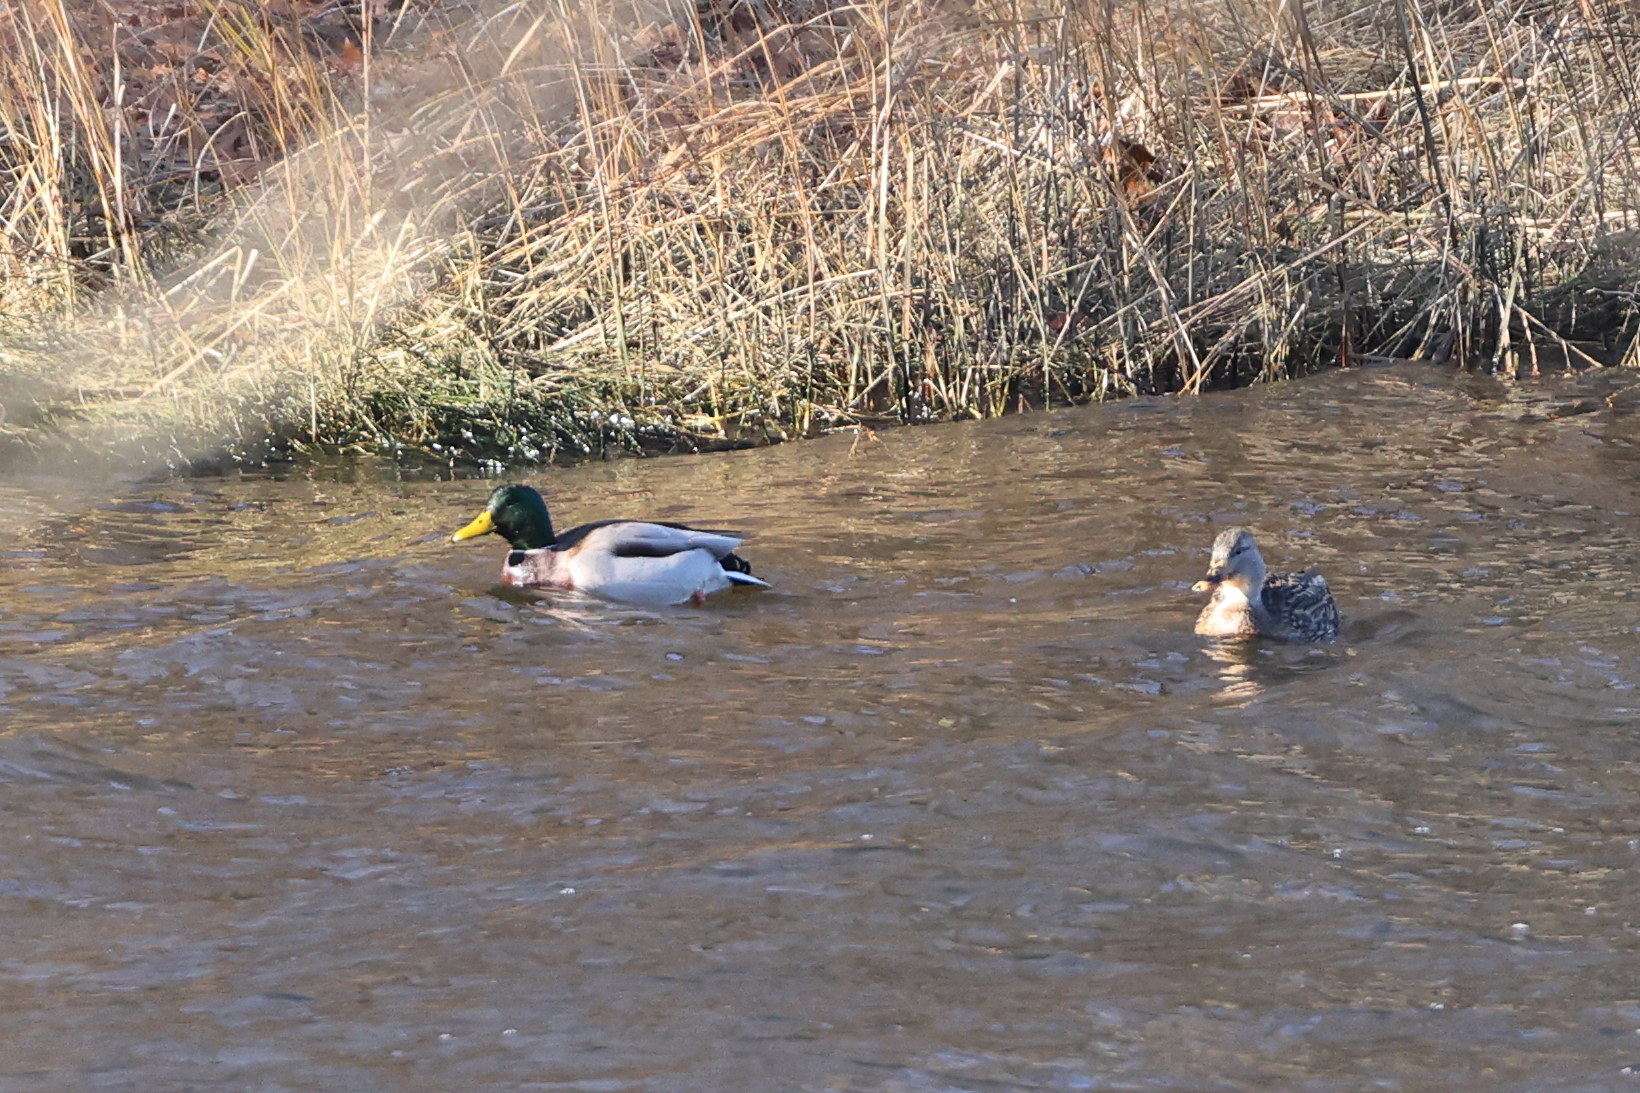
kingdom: Animalia
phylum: Chordata
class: Aves
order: Anseriformes
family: Anatidae
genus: Anas
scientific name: Anas platyrhynchos
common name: Mallard
